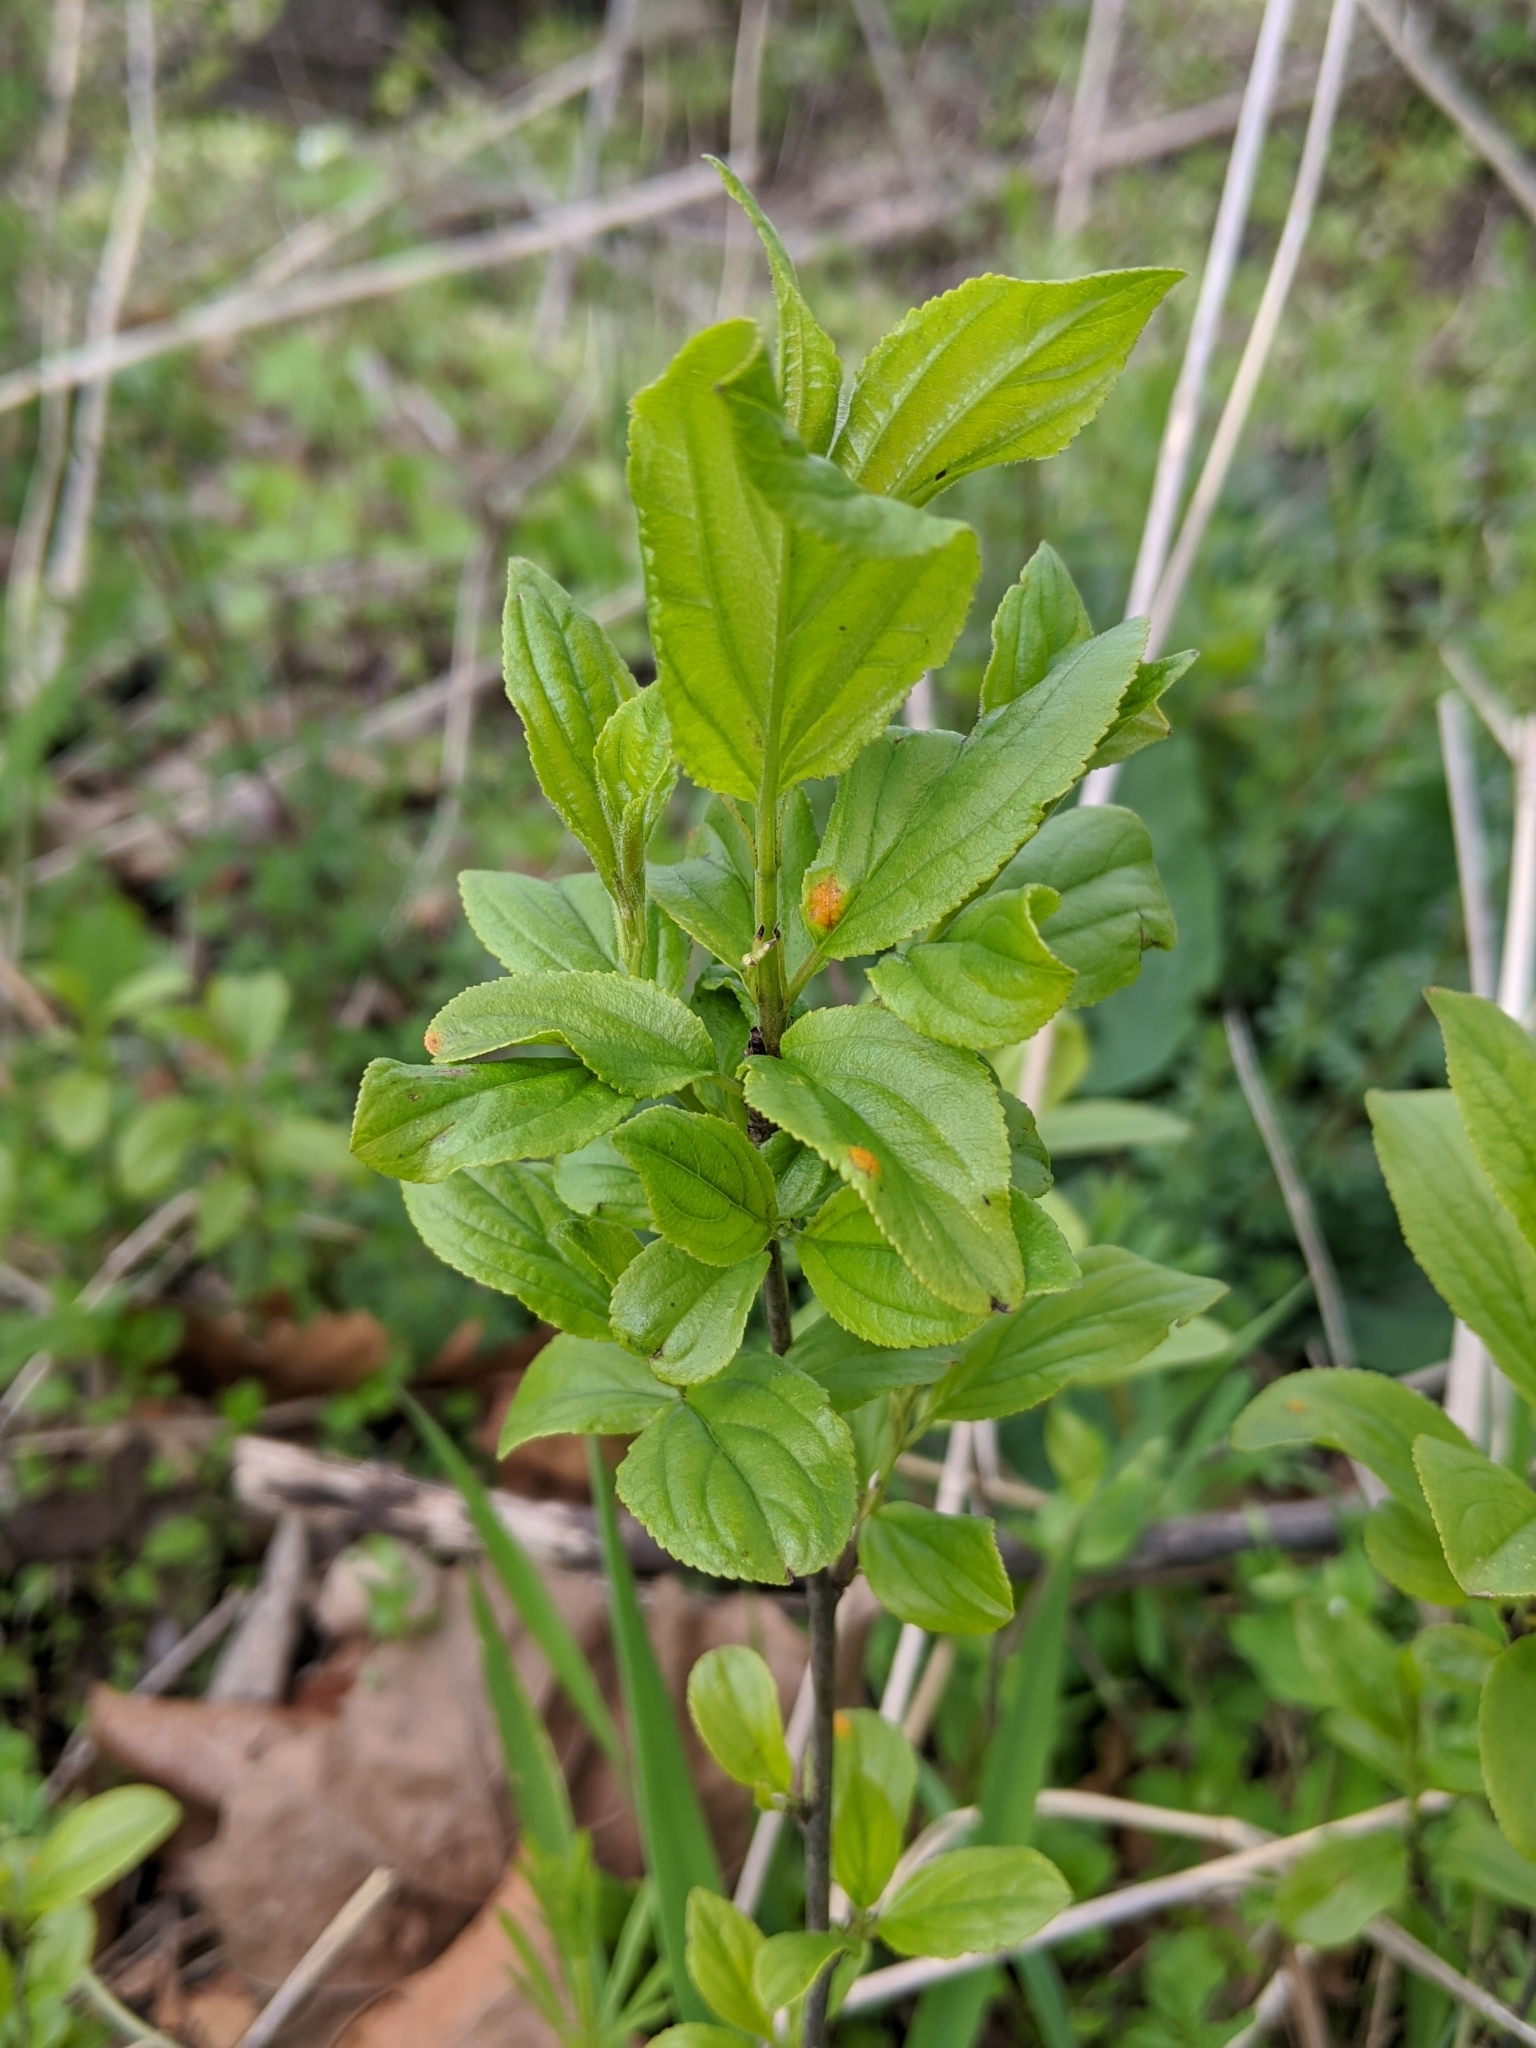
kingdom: Plantae
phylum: Tracheophyta
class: Magnoliopsida
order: Rosales
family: Rhamnaceae
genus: Rhamnus
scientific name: Rhamnus
